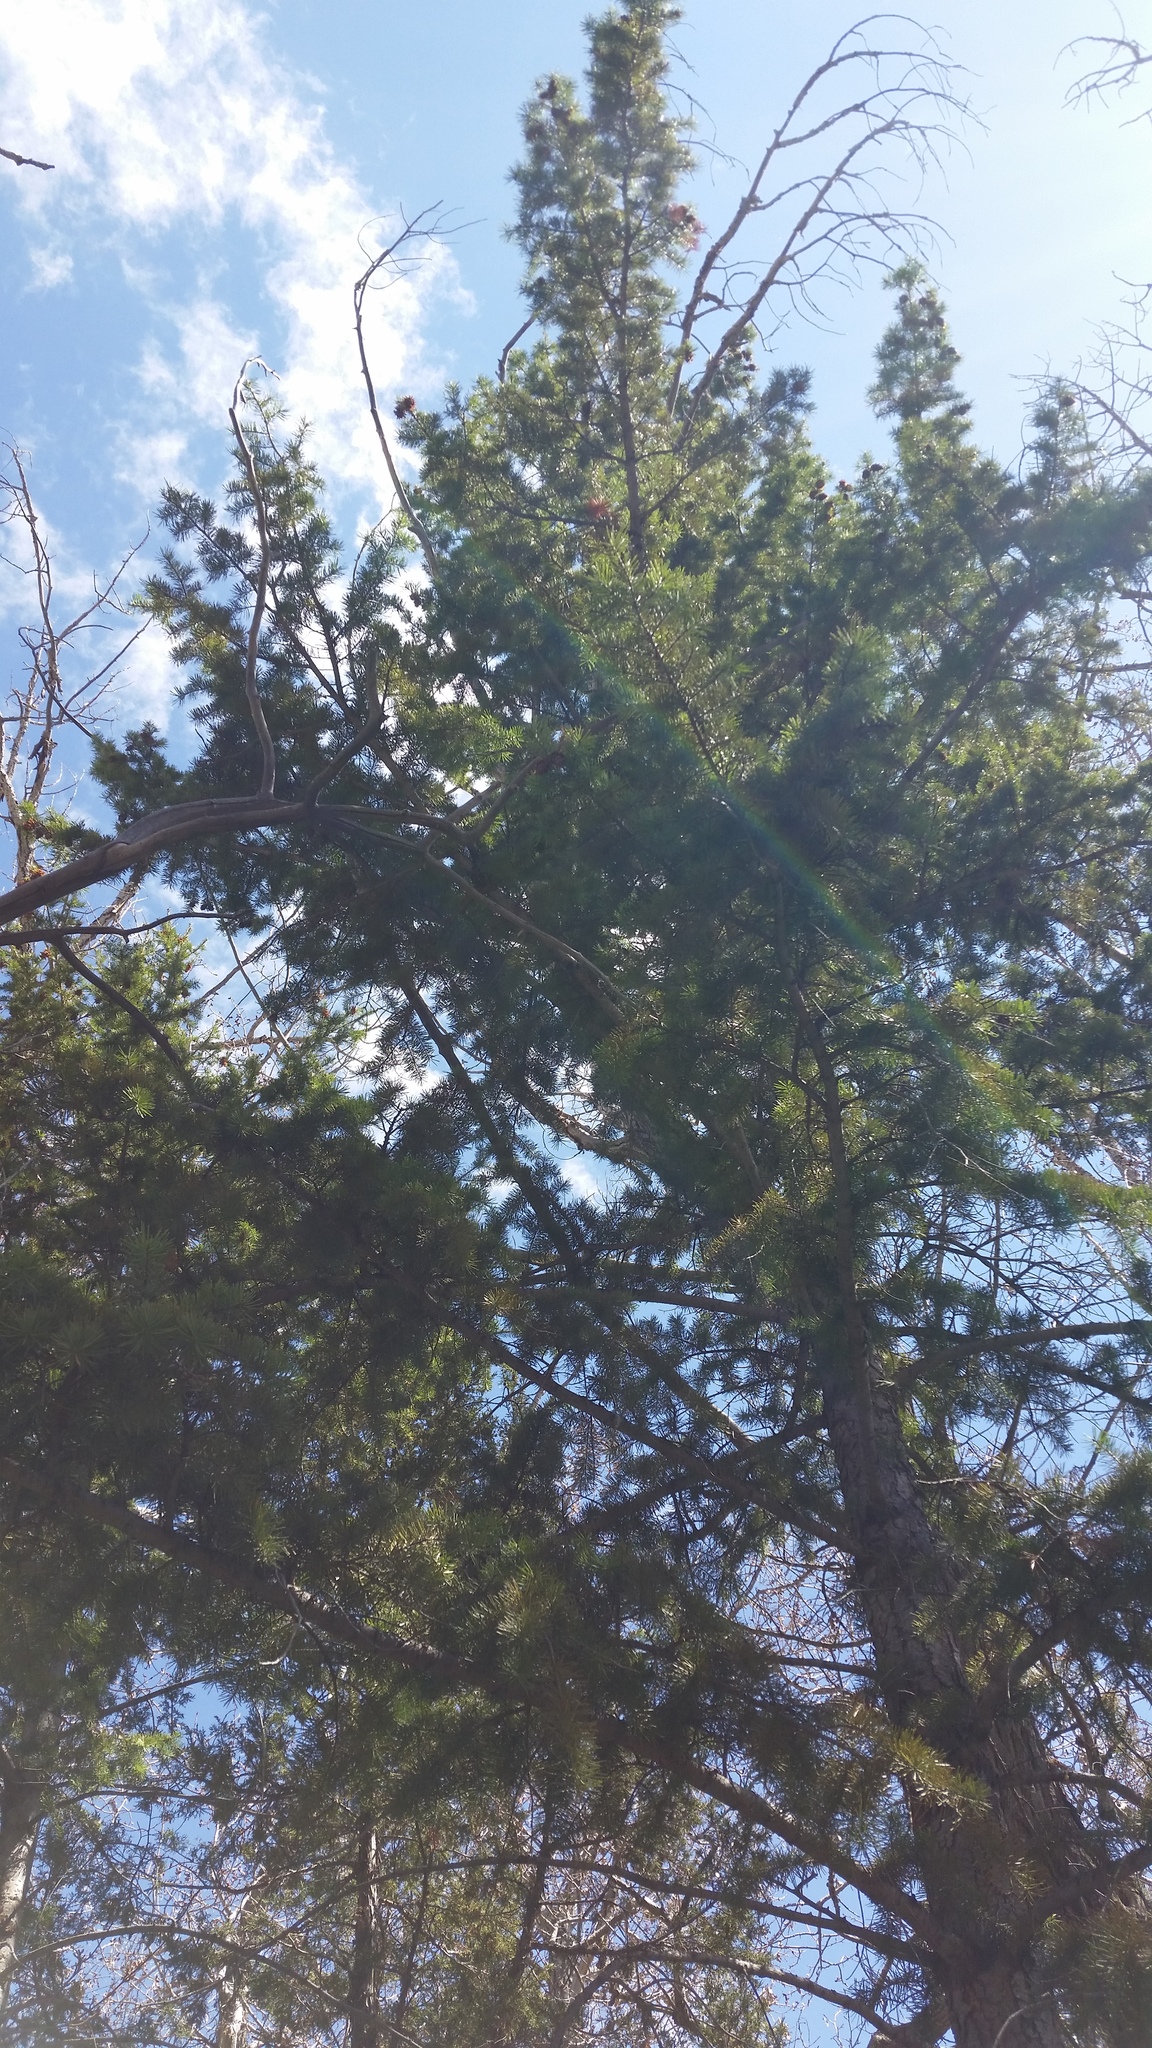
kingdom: Plantae
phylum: Tracheophyta
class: Pinopsida
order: Pinales
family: Pinaceae
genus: Pseudotsuga
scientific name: Pseudotsuga menziesii
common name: Douglas fir
